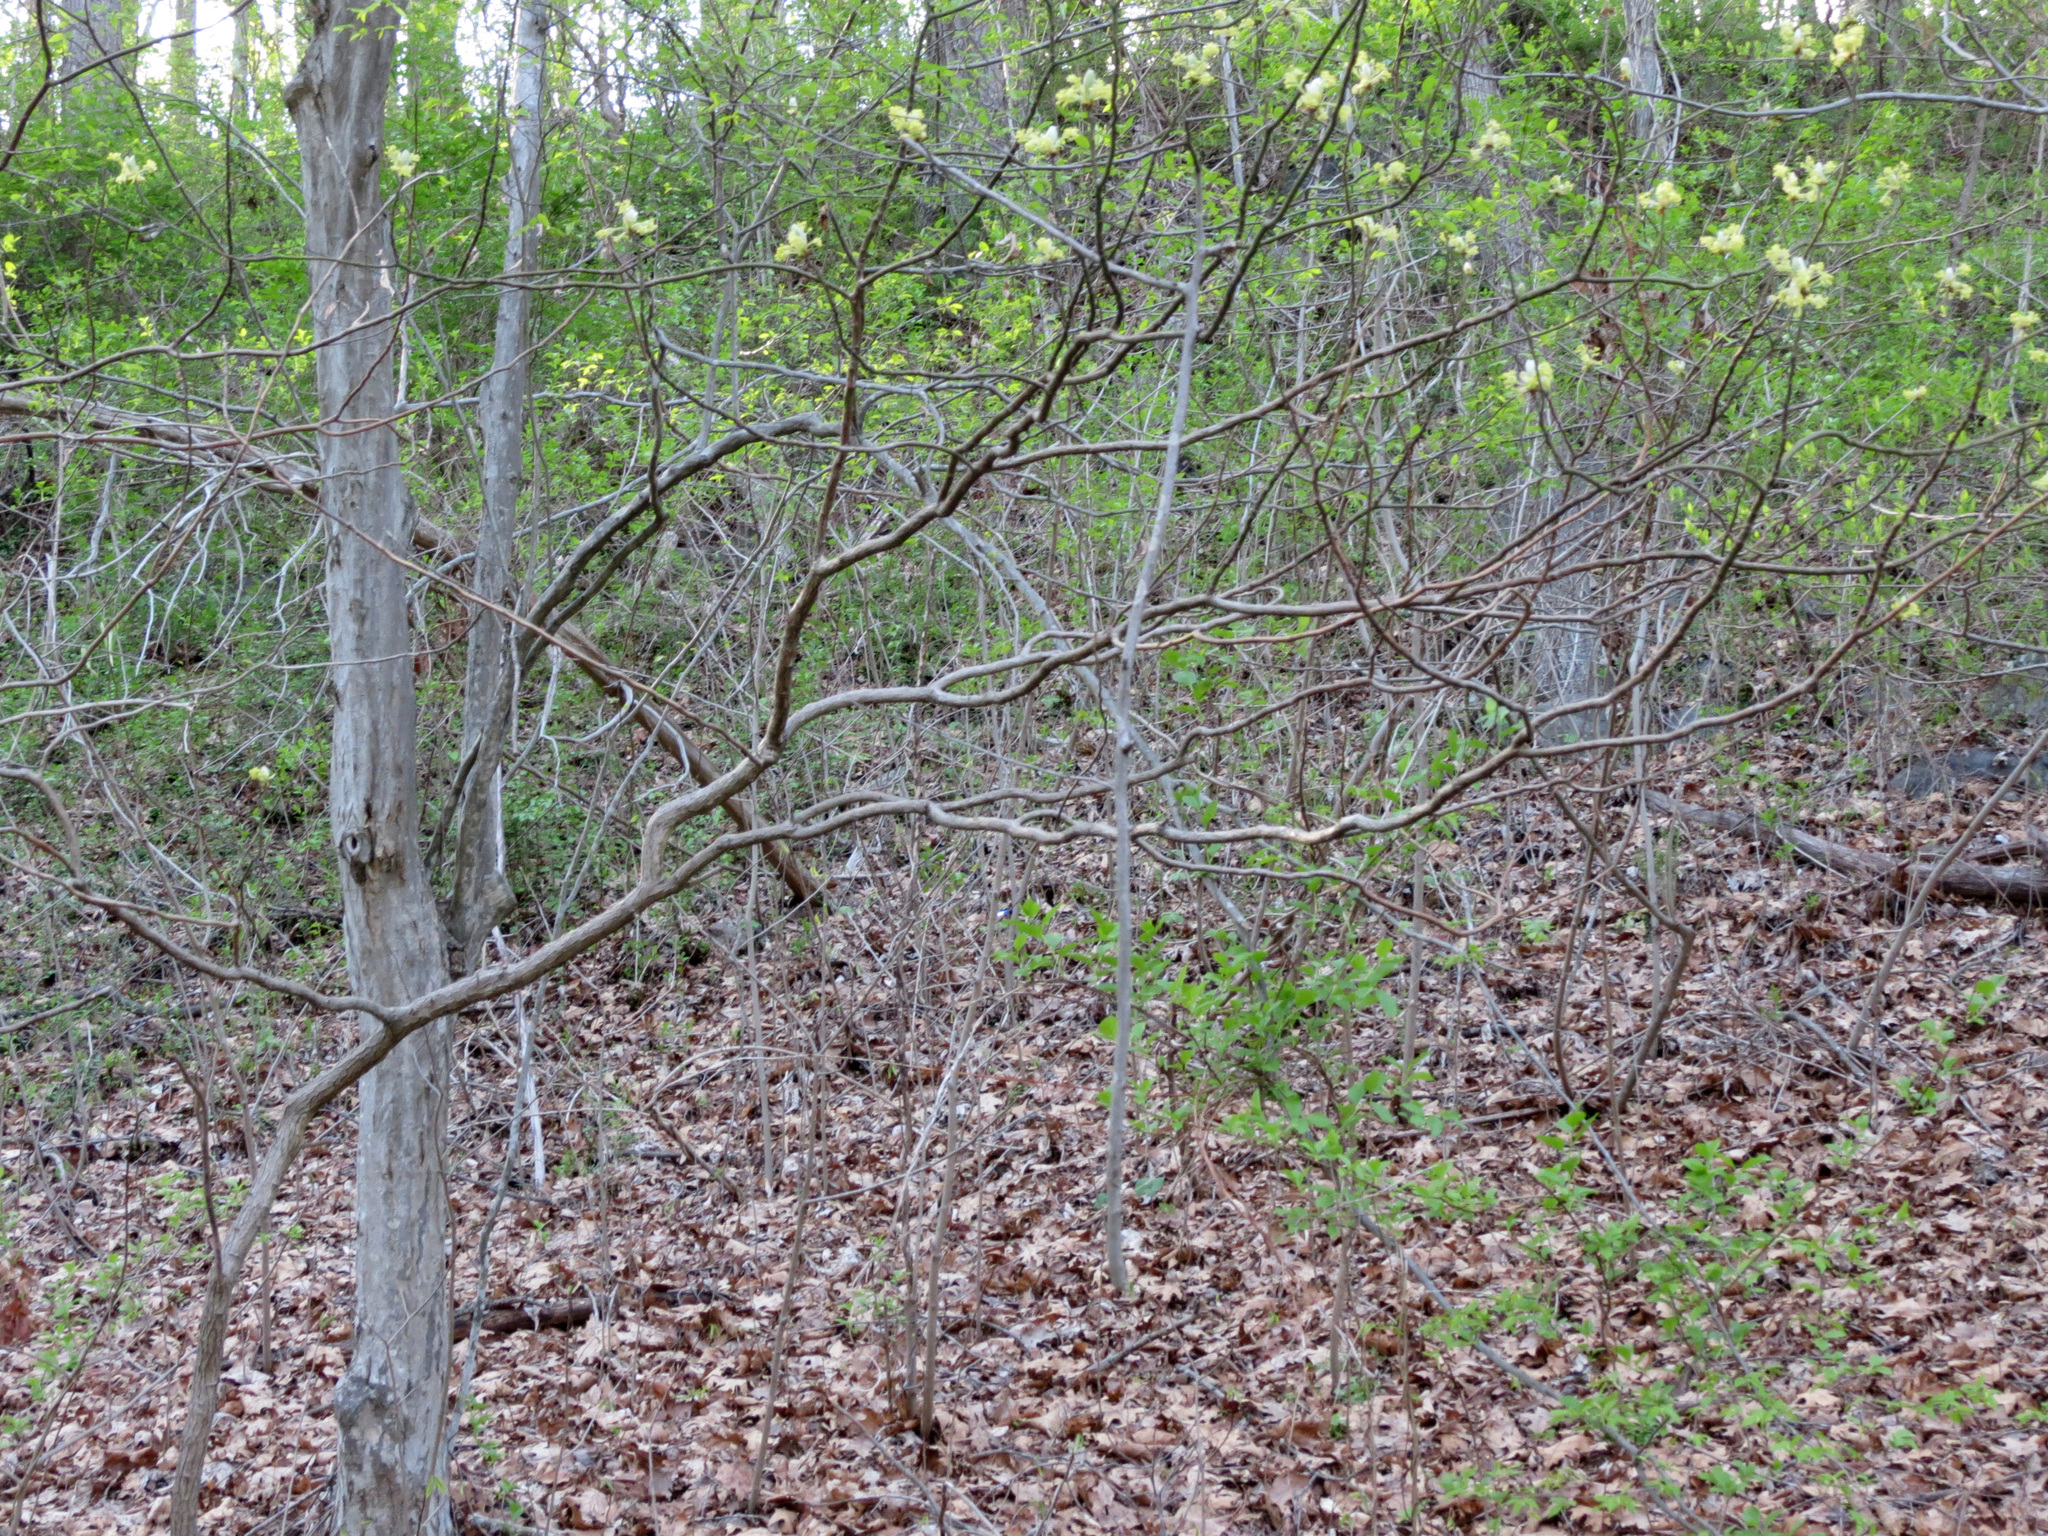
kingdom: Plantae
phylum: Tracheophyta
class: Magnoliopsida
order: Laurales
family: Lauraceae
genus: Sassafras
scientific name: Sassafras albidum
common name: Sassafras
